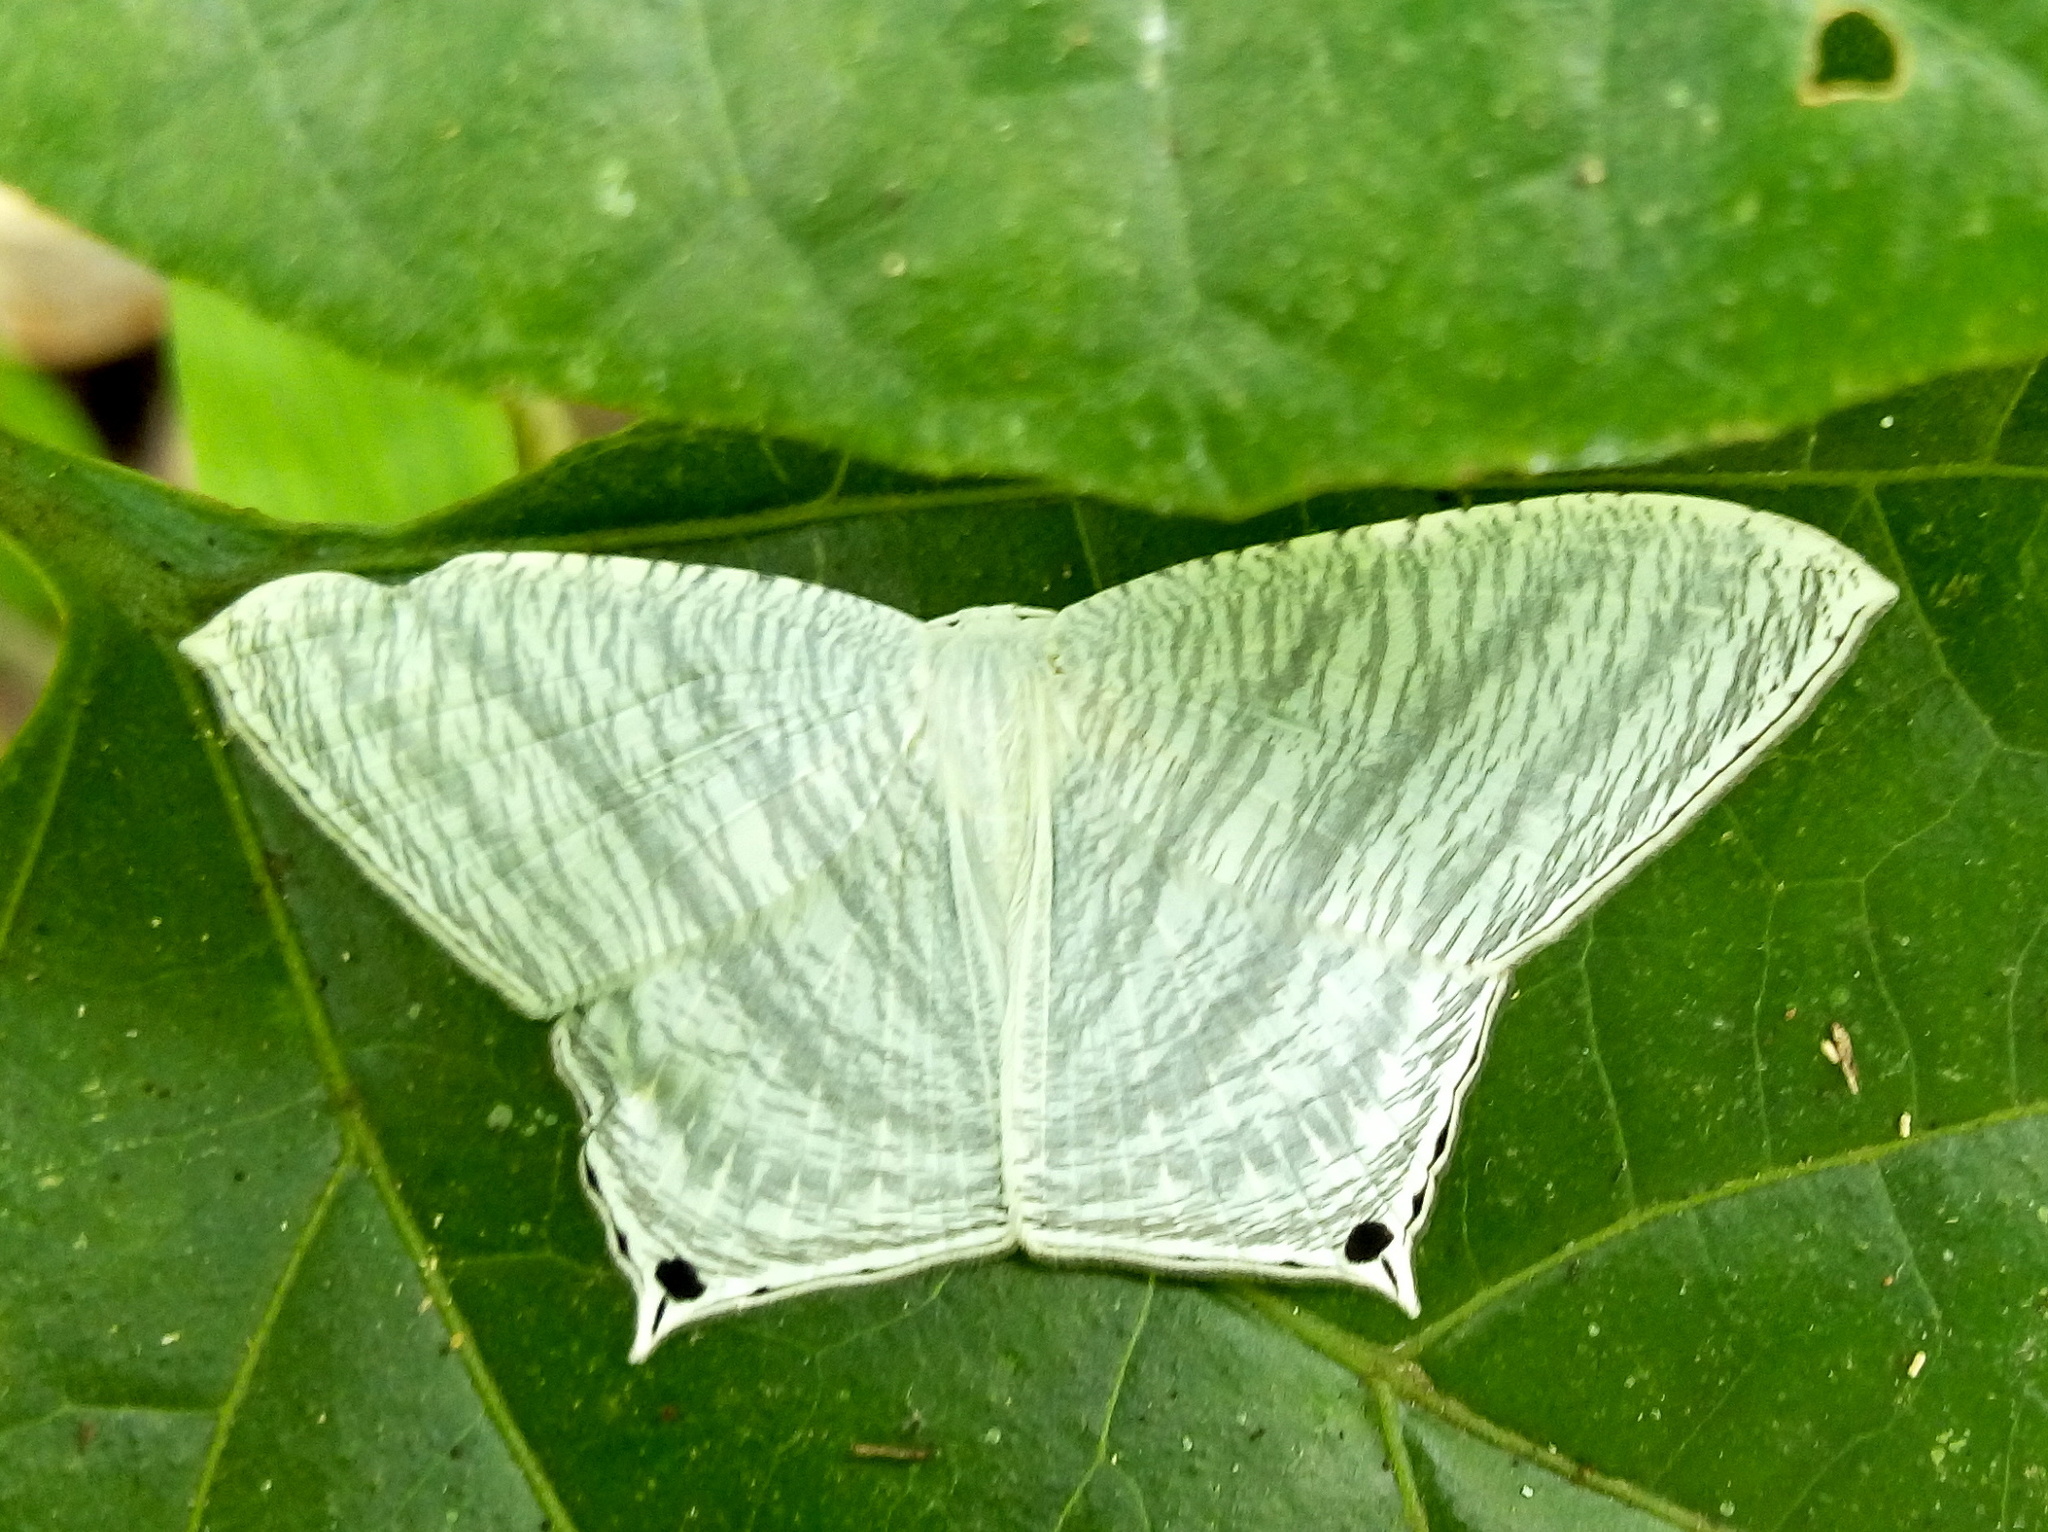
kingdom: Animalia
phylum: Arthropoda
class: Insecta
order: Lepidoptera
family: Uraniidae
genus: Micronia
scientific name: Micronia aculeata
